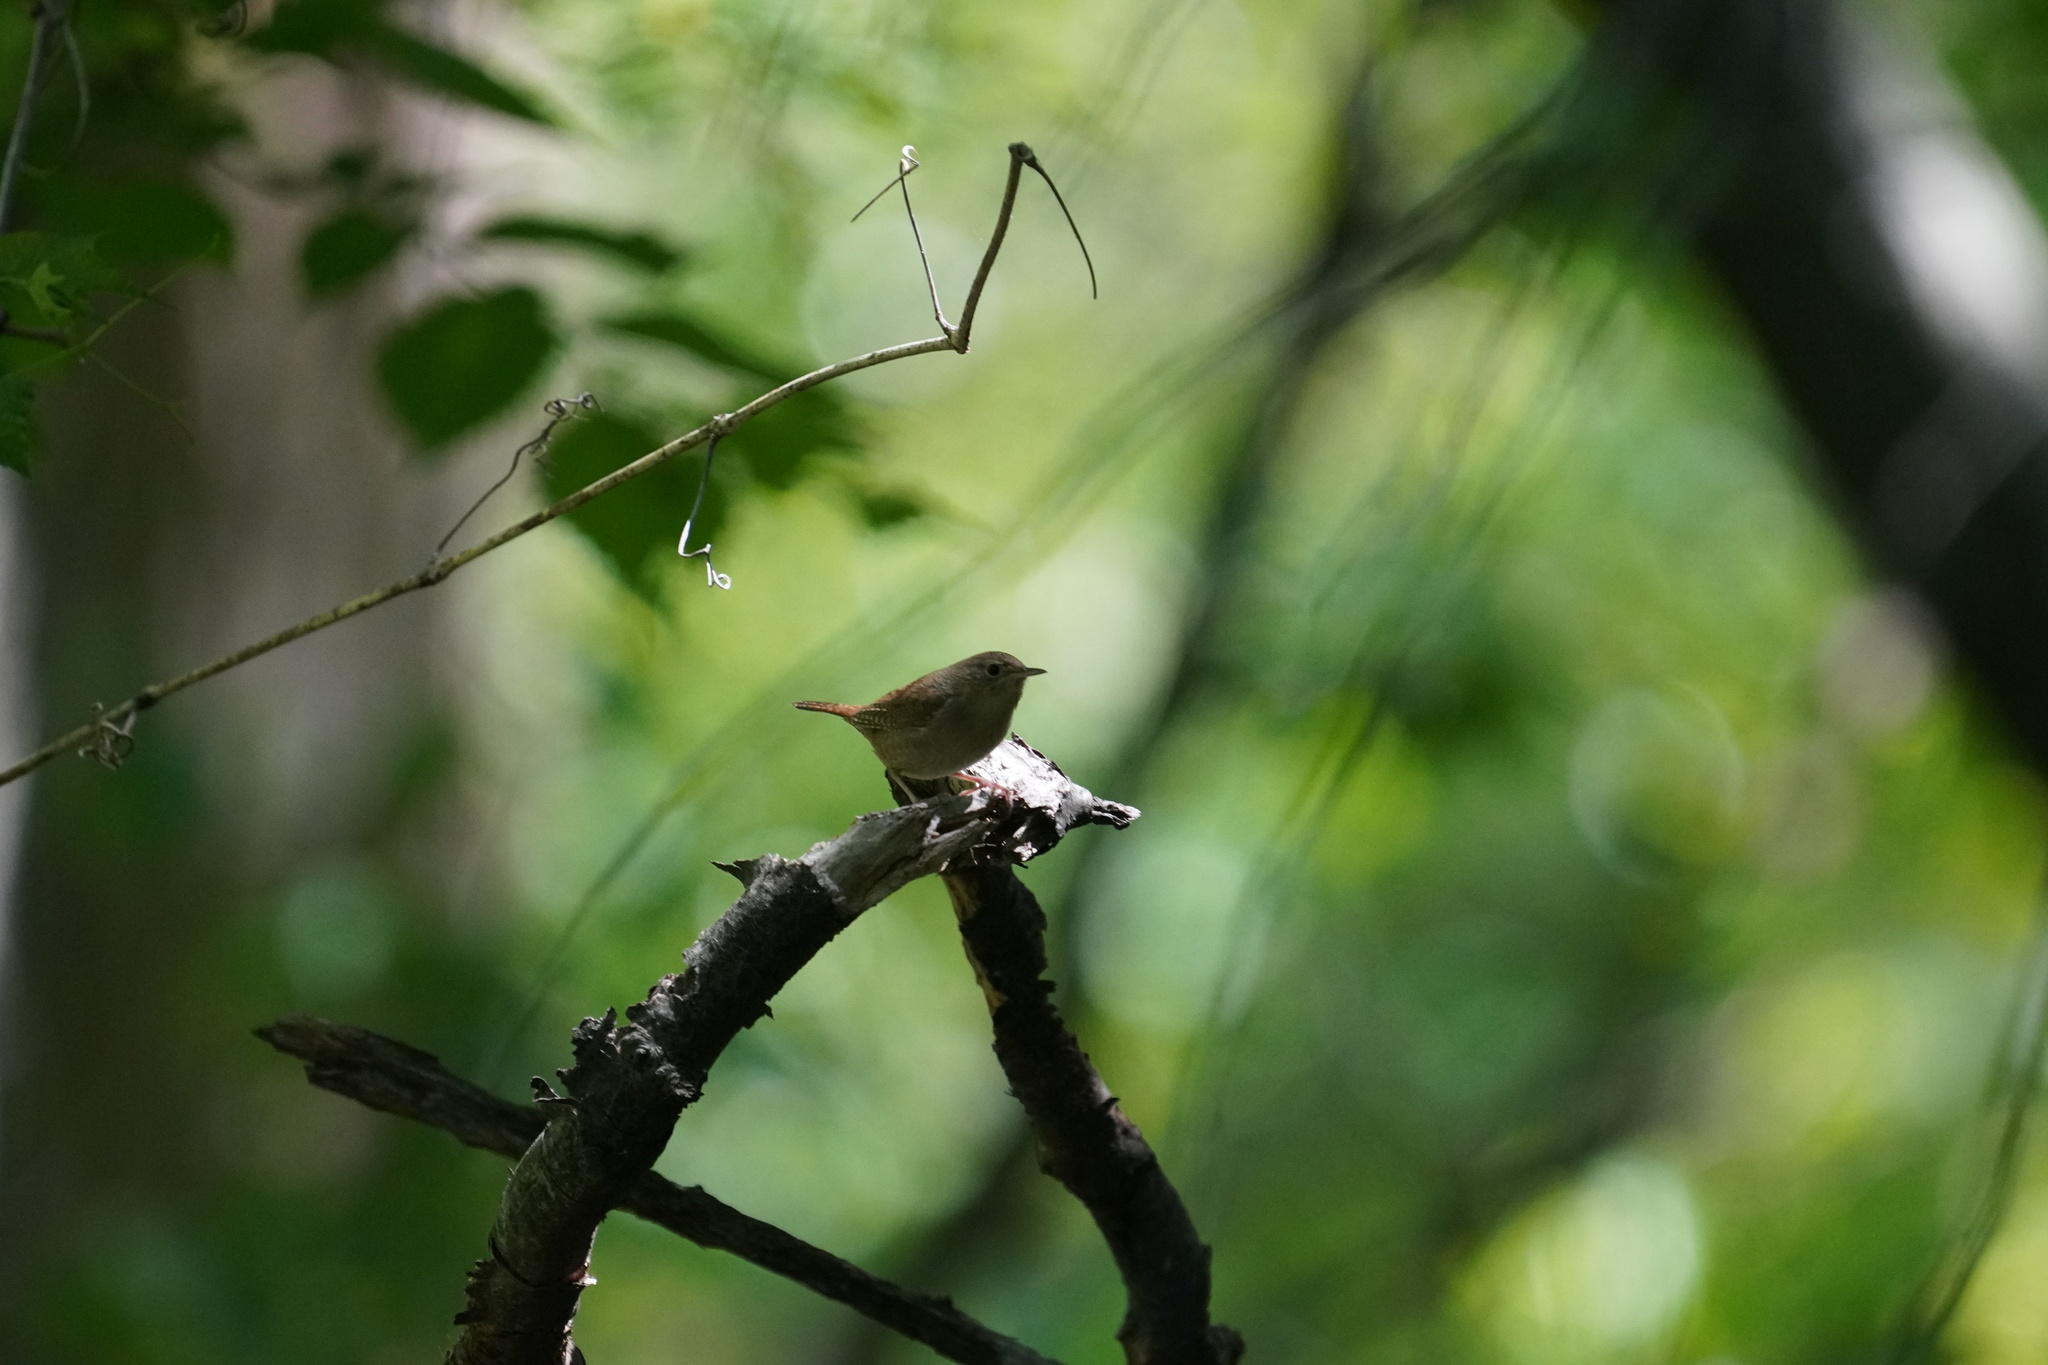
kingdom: Animalia
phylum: Chordata
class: Aves
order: Passeriformes
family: Troglodytidae
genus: Troglodytes
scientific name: Troglodytes aedon
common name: House wren
